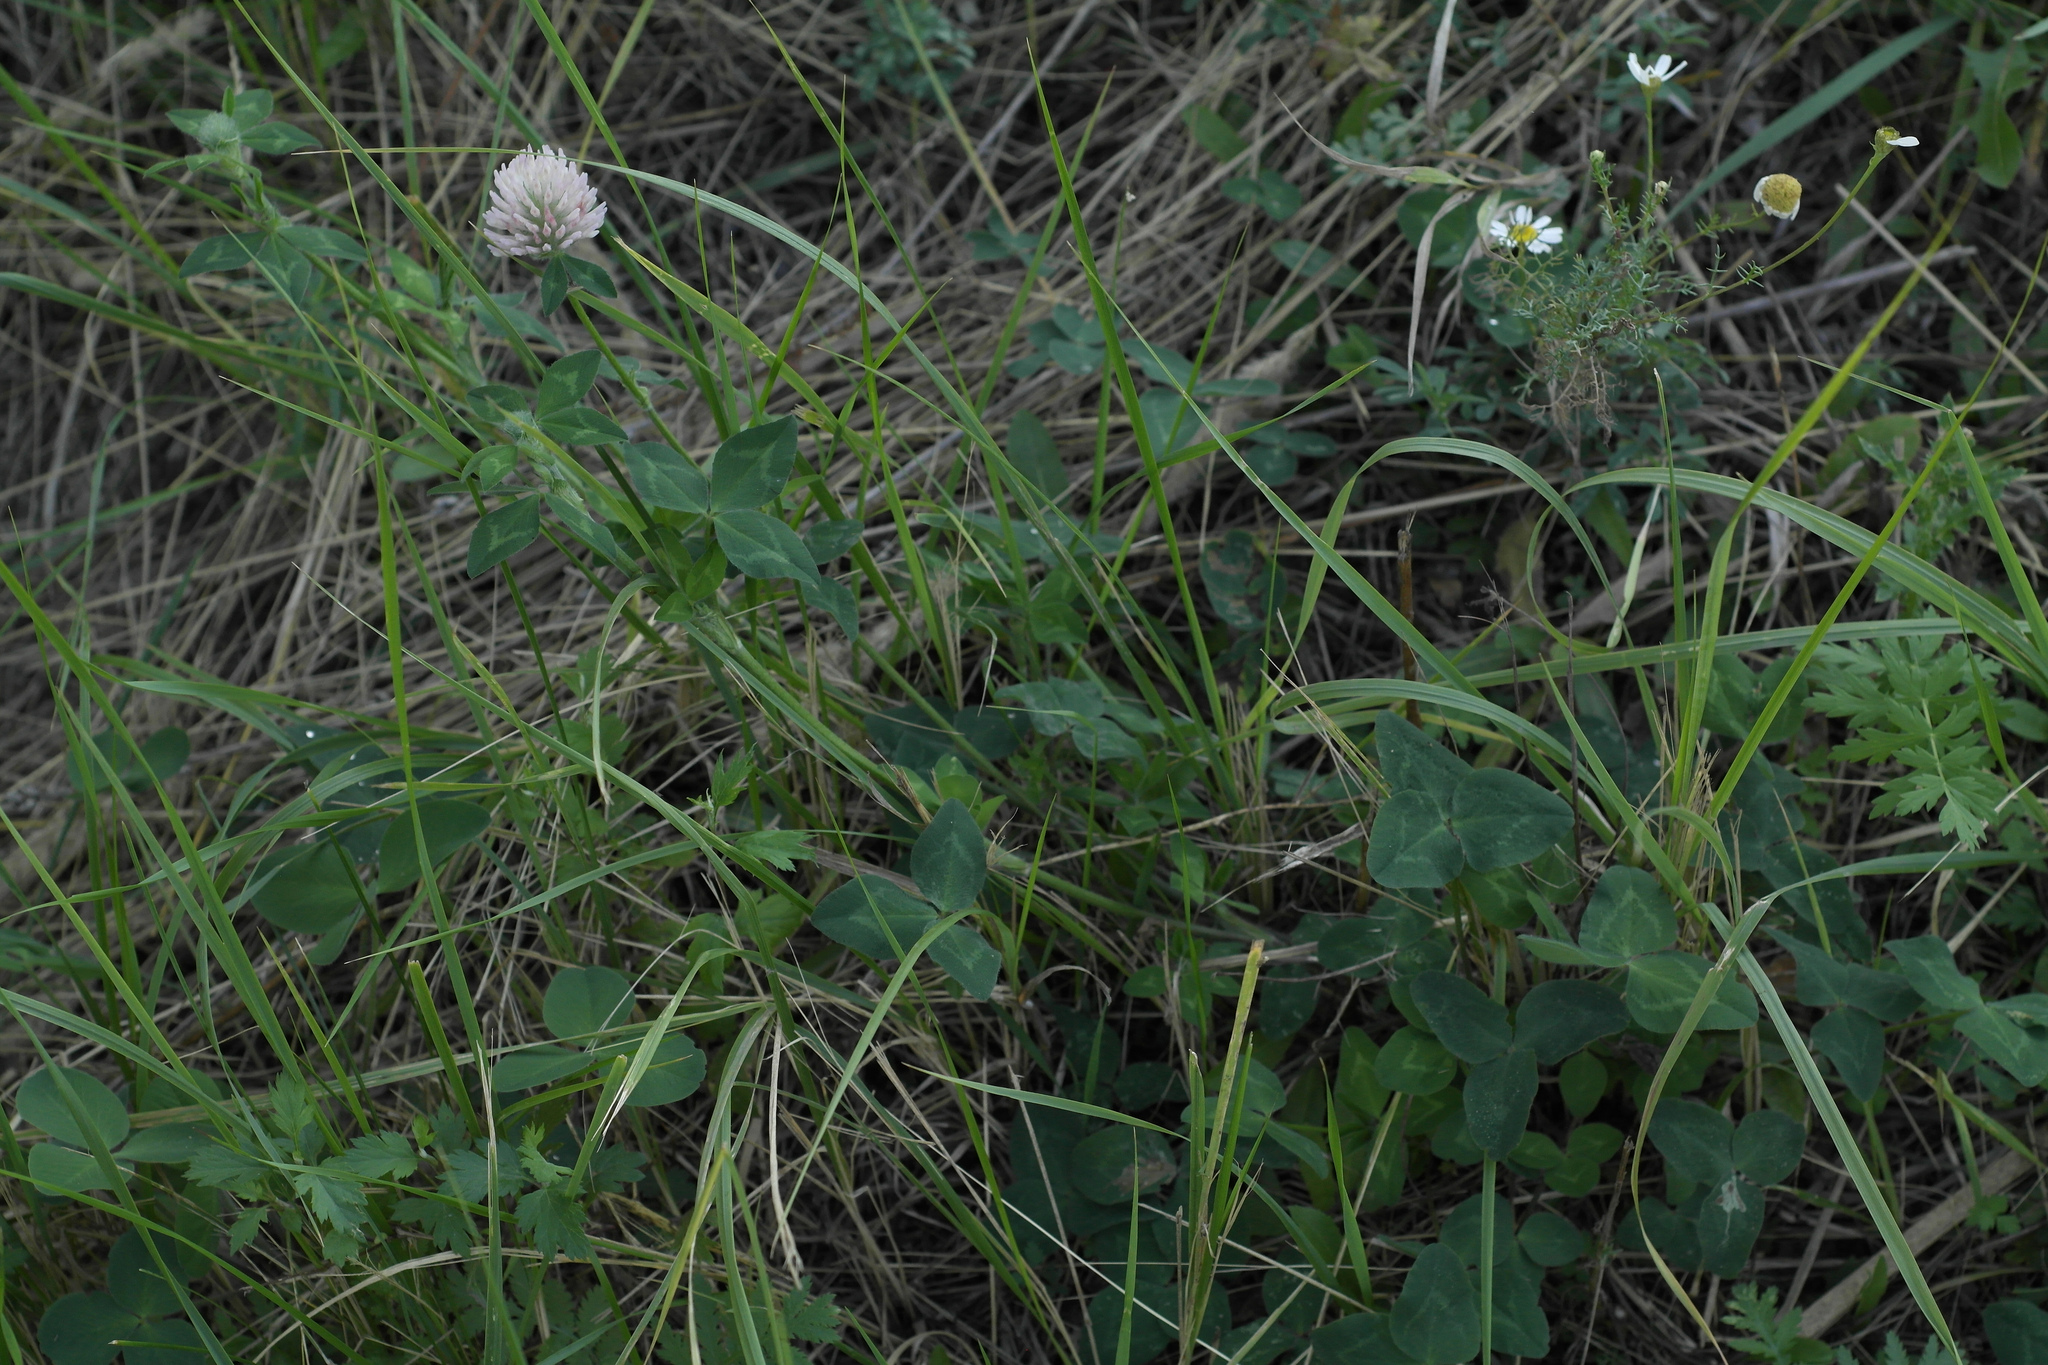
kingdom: Plantae
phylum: Tracheophyta
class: Magnoliopsida
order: Fabales
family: Fabaceae
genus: Trifolium
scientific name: Trifolium pratense
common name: Red clover
